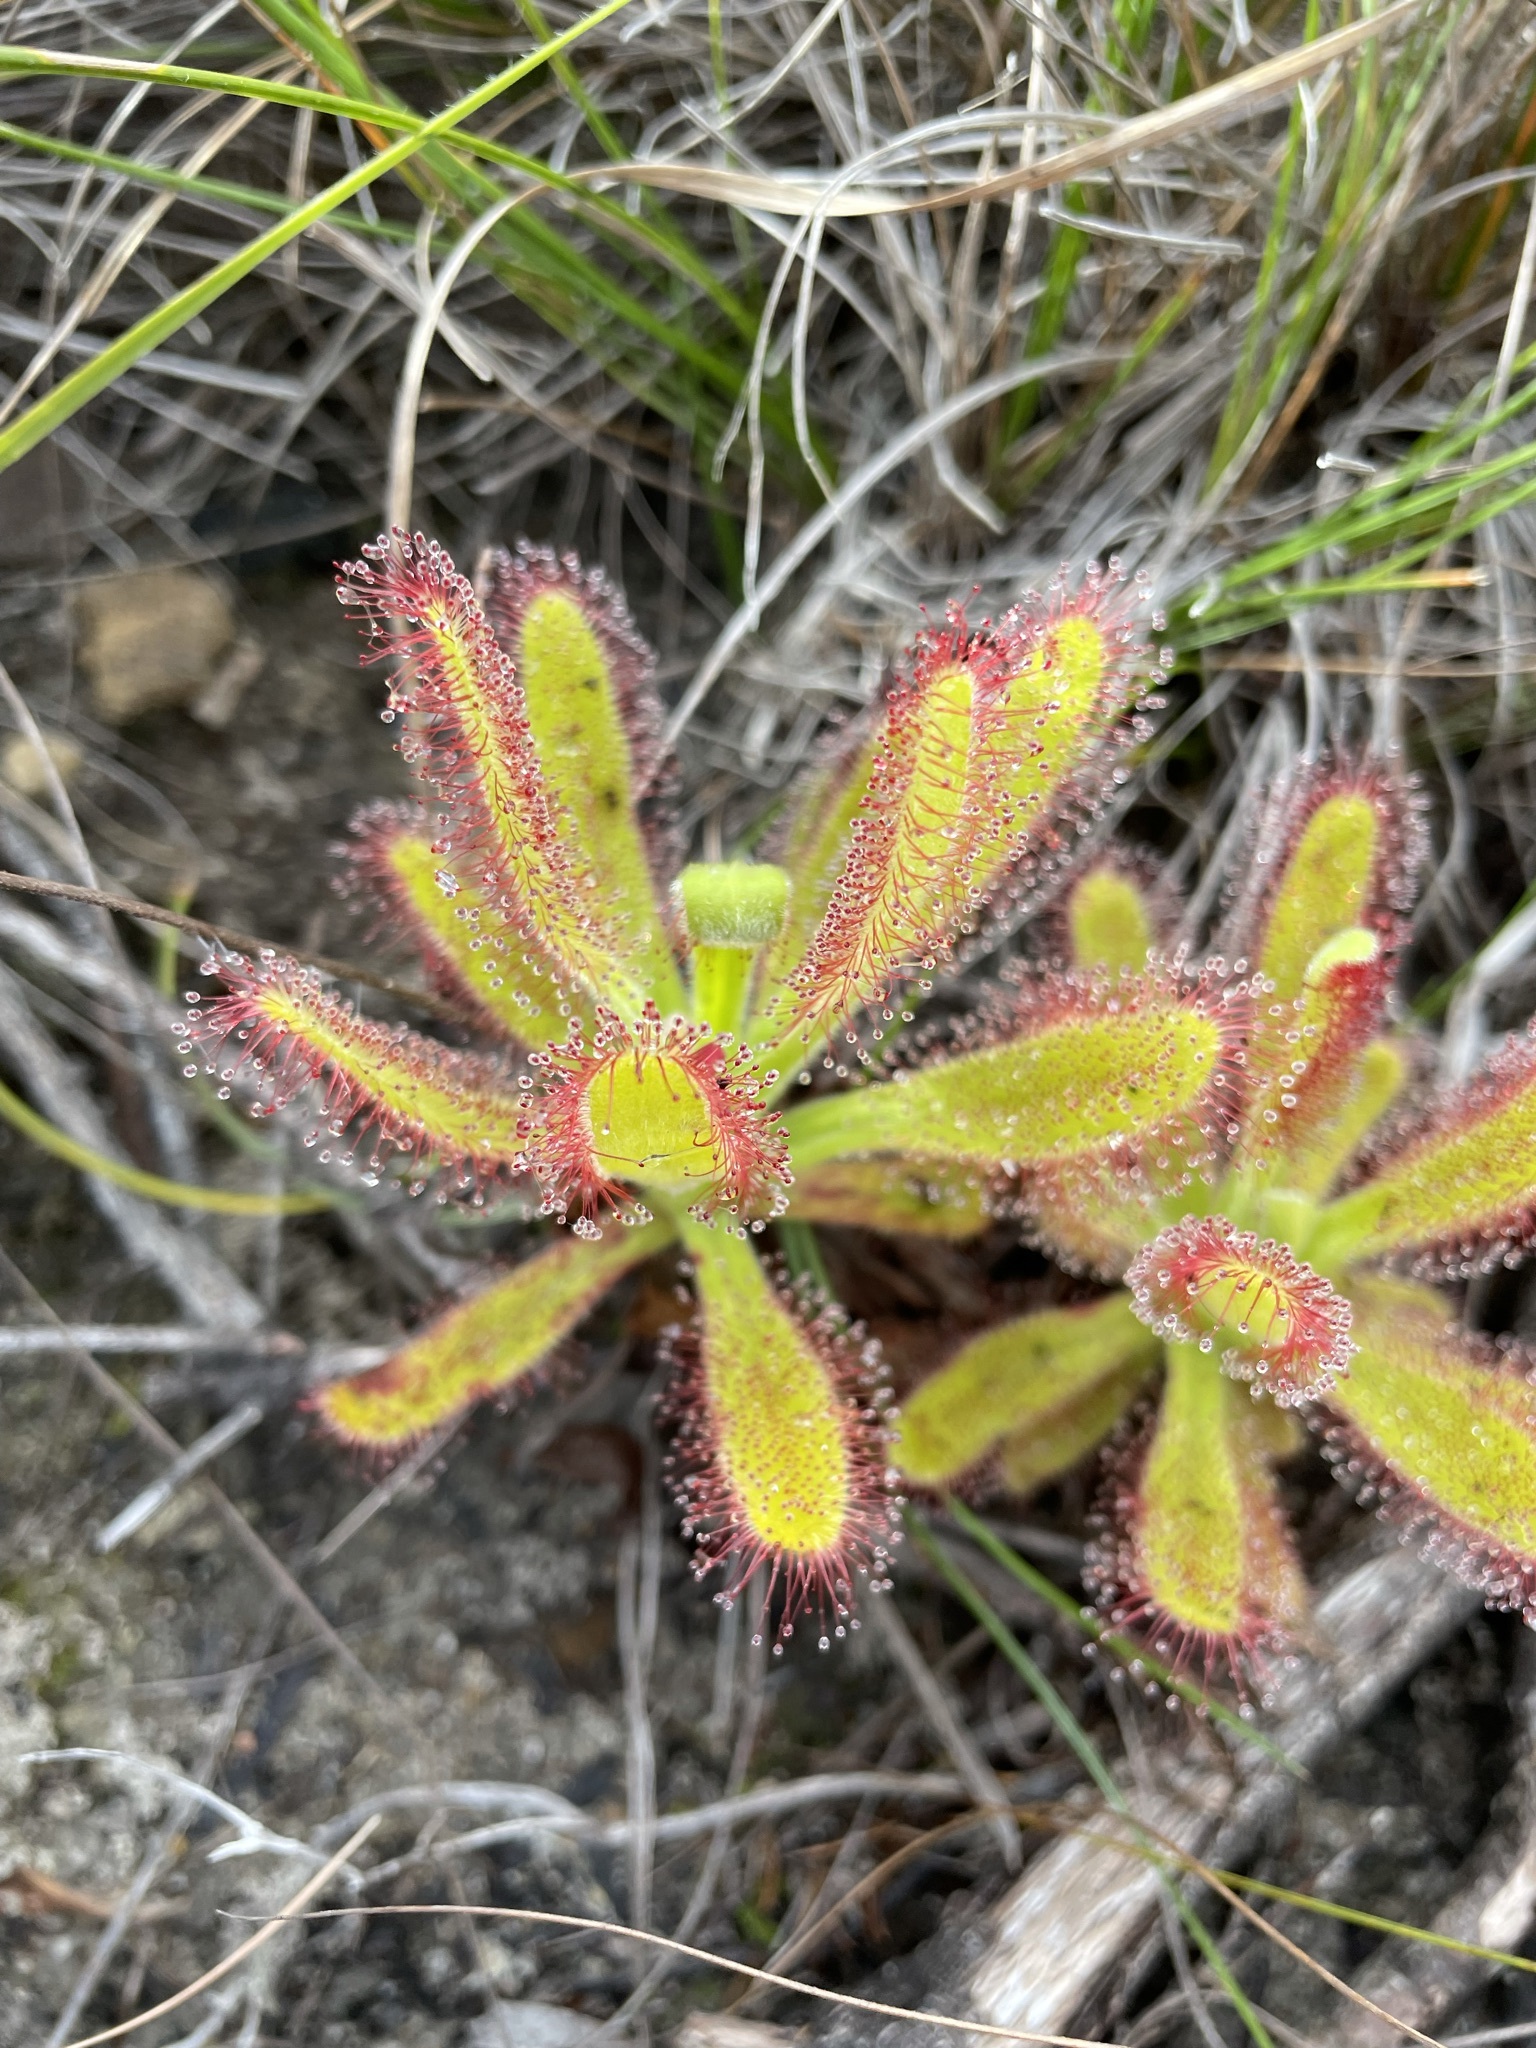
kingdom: Plantae
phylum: Tracheophyta
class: Magnoliopsida
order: Caryophyllales
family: Droseraceae
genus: Drosera
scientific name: Drosera hilaris
